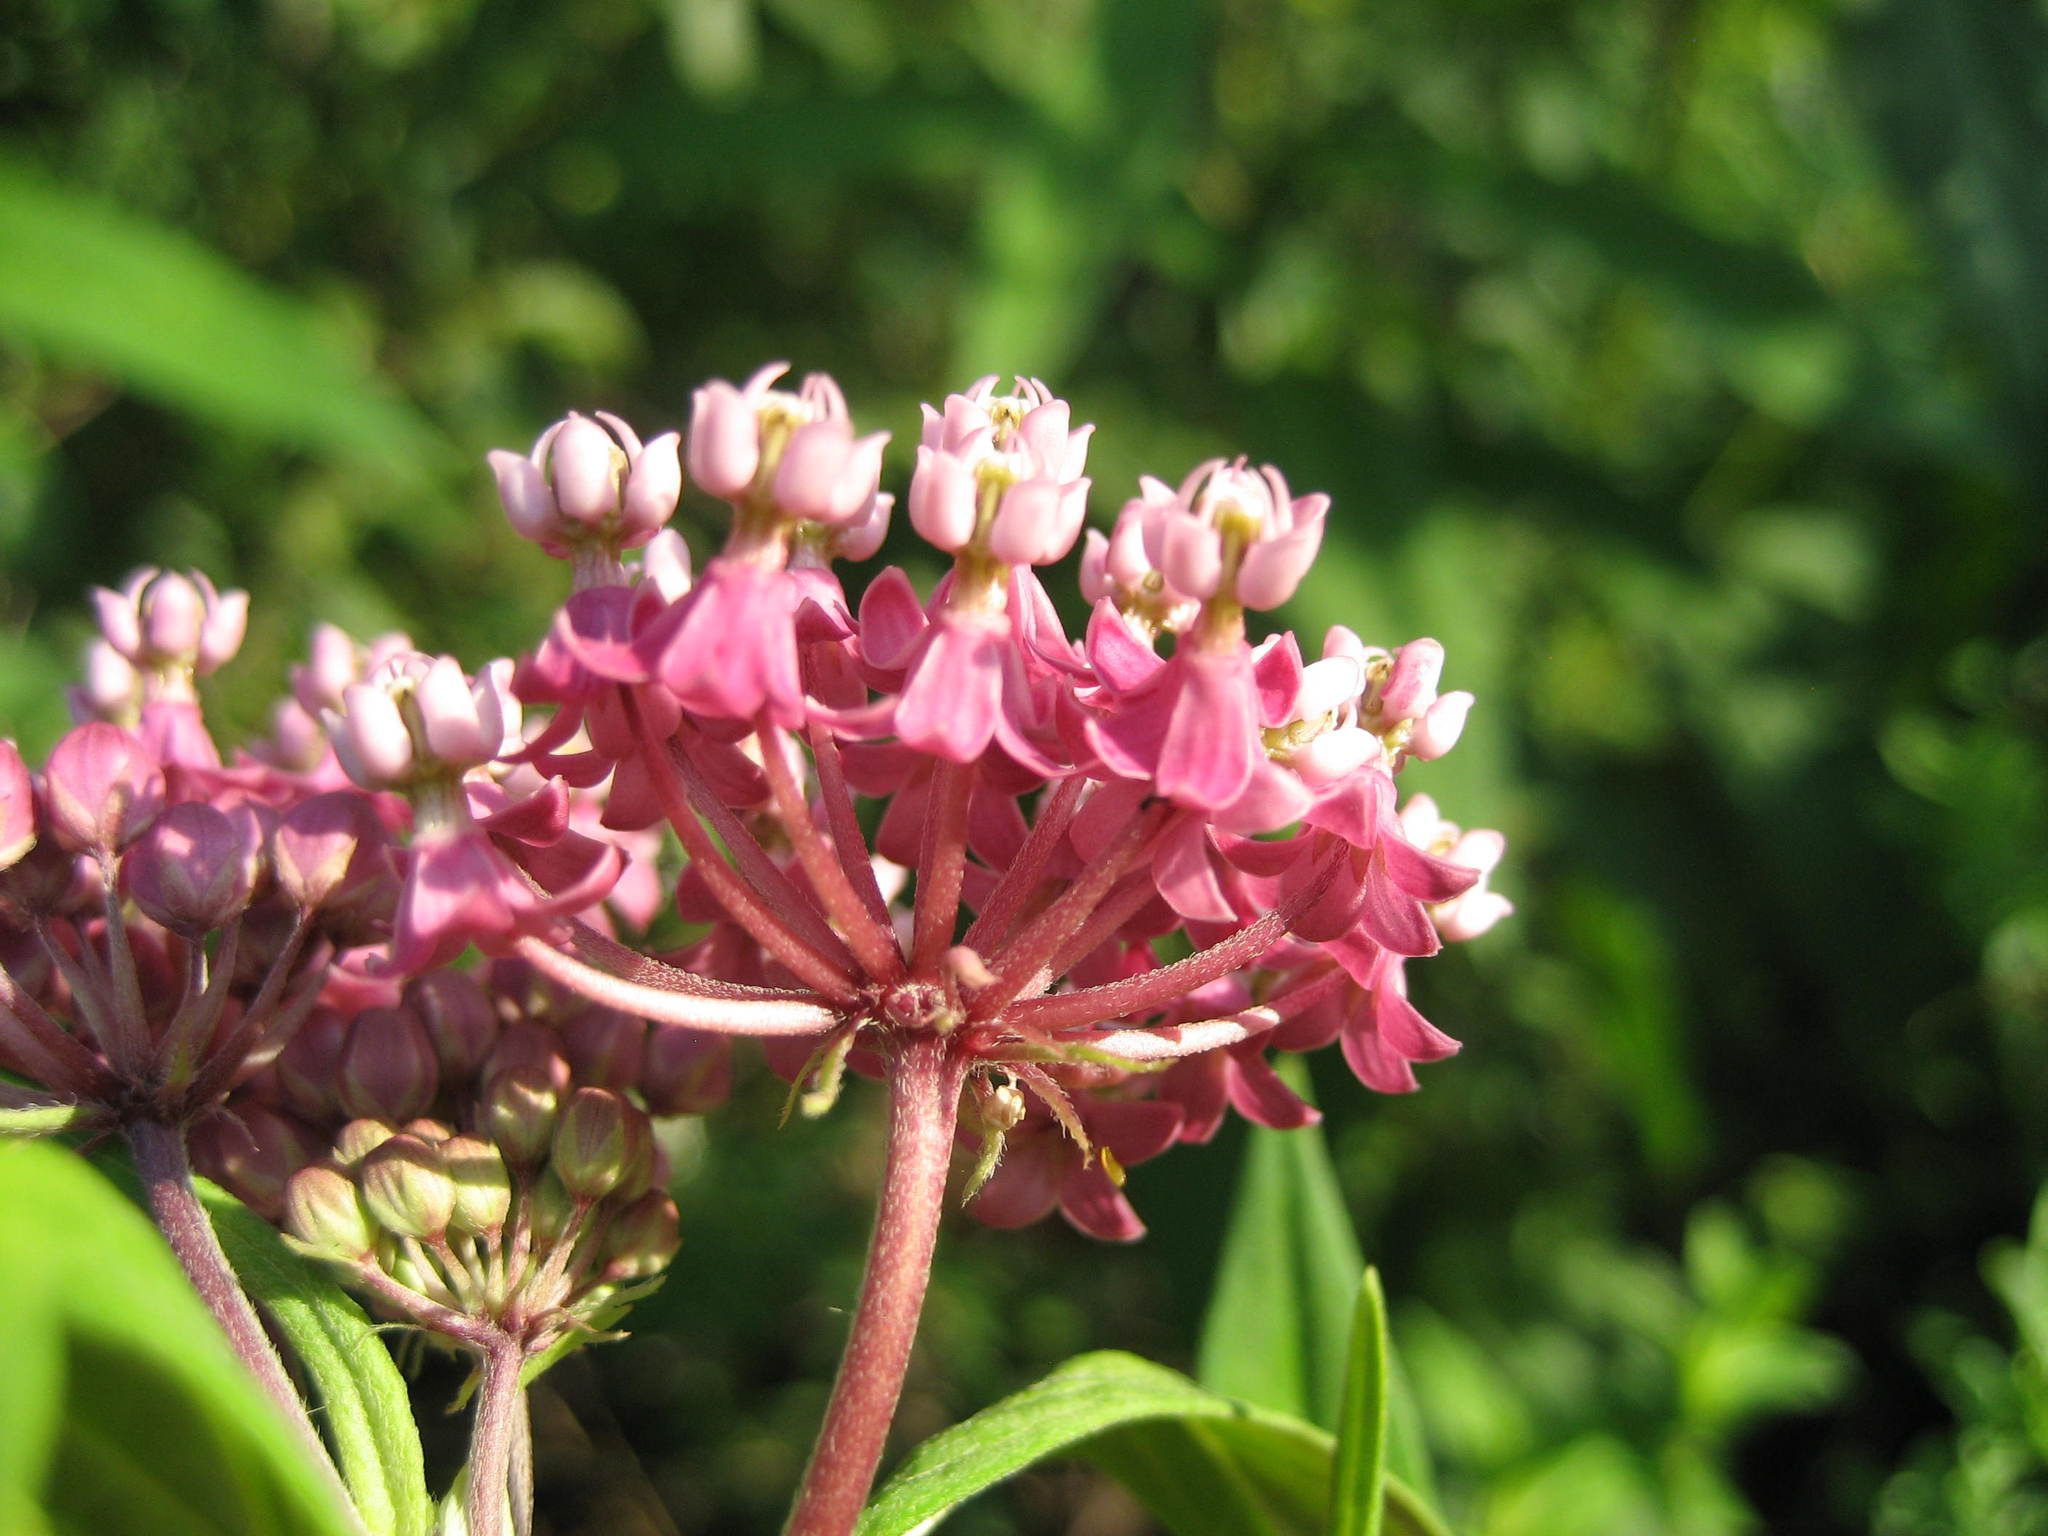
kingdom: Plantae
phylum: Tracheophyta
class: Magnoliopsida
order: Gentianales
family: Apocynaceae
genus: Asclepias
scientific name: Asclepias incarnata
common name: Swamp milkweed
